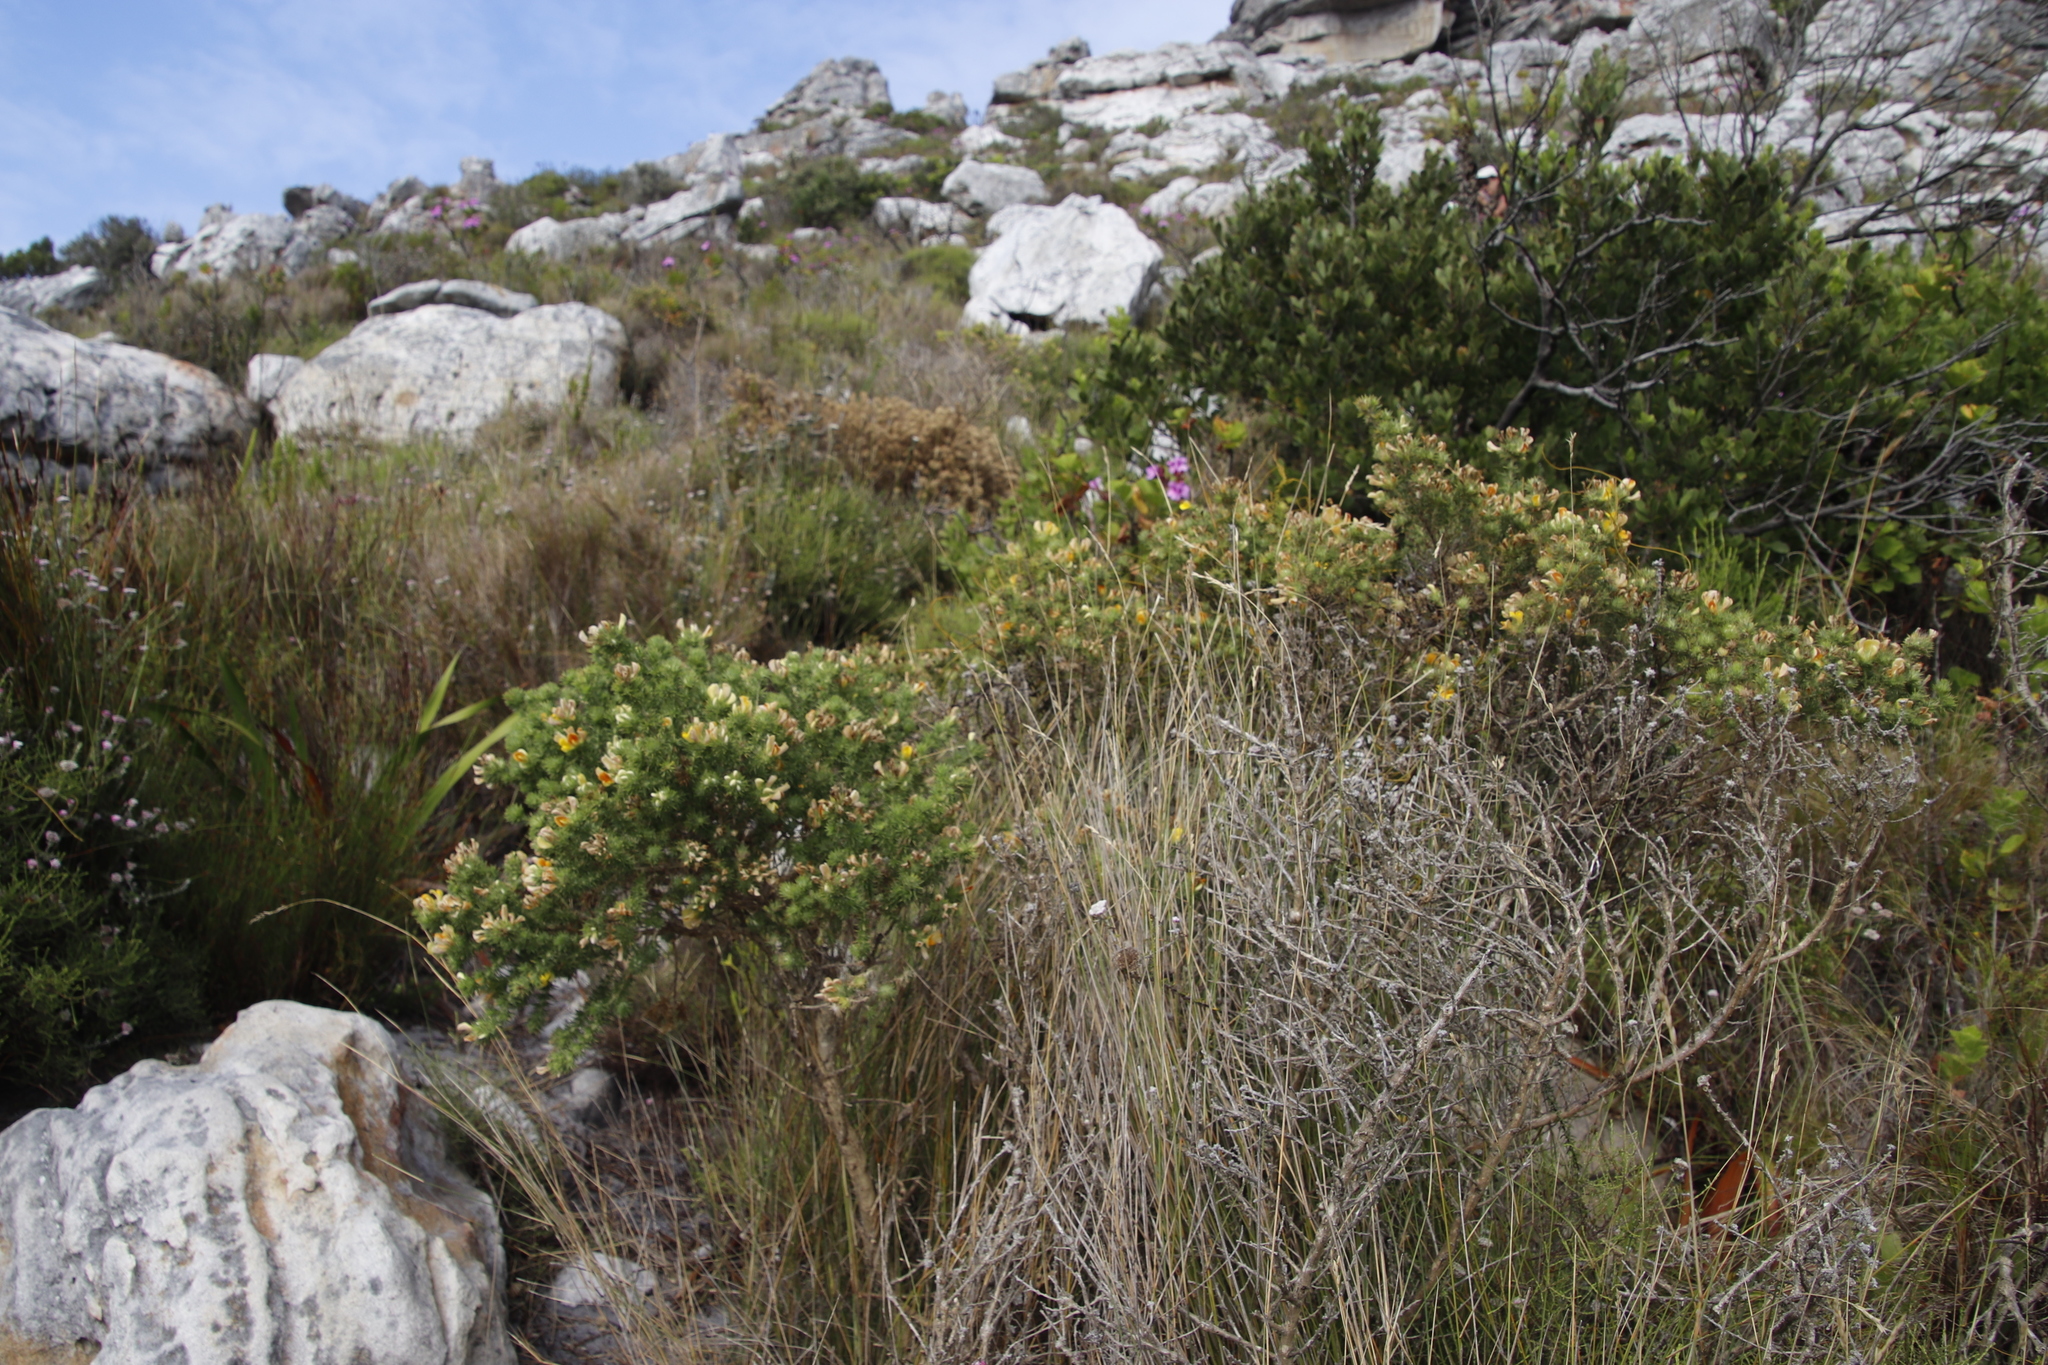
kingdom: Plantae
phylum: Tracheophyta
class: Magnoliopsida
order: Fabales
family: Fabaceae
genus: Aspalathus
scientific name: Aspalathus chenopoda
